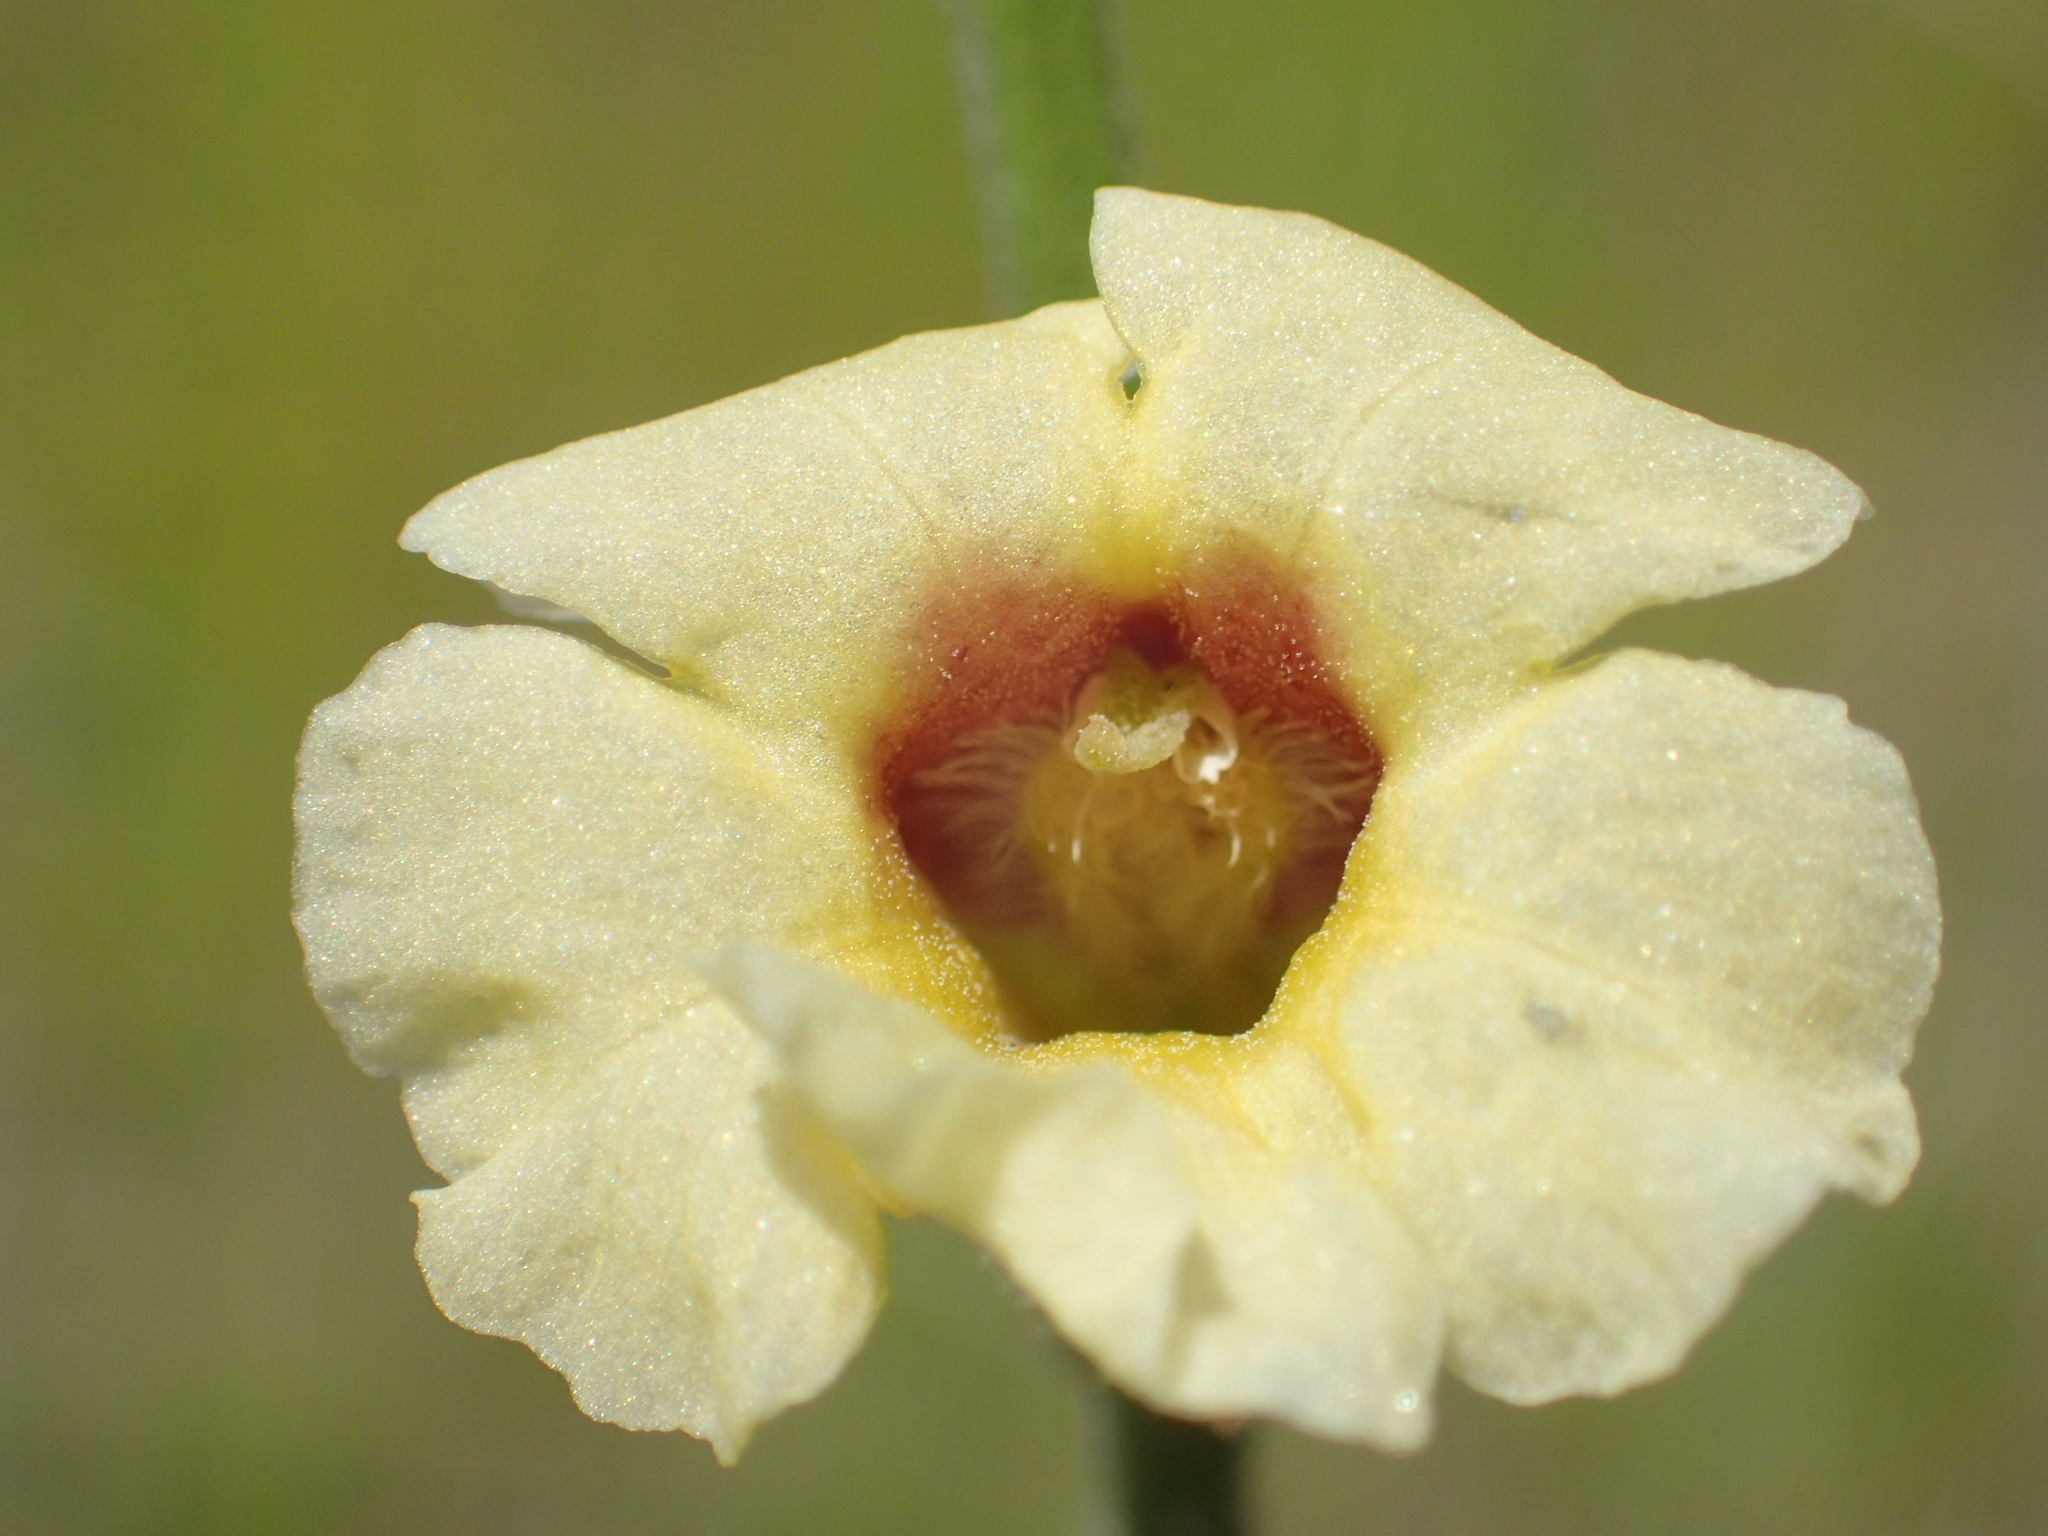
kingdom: Plantae
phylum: Tracheophyta
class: Magnoliopsida
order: Lamiales
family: Orobanchaceae
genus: Centranthera
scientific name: Centranthera cochinchinensis
